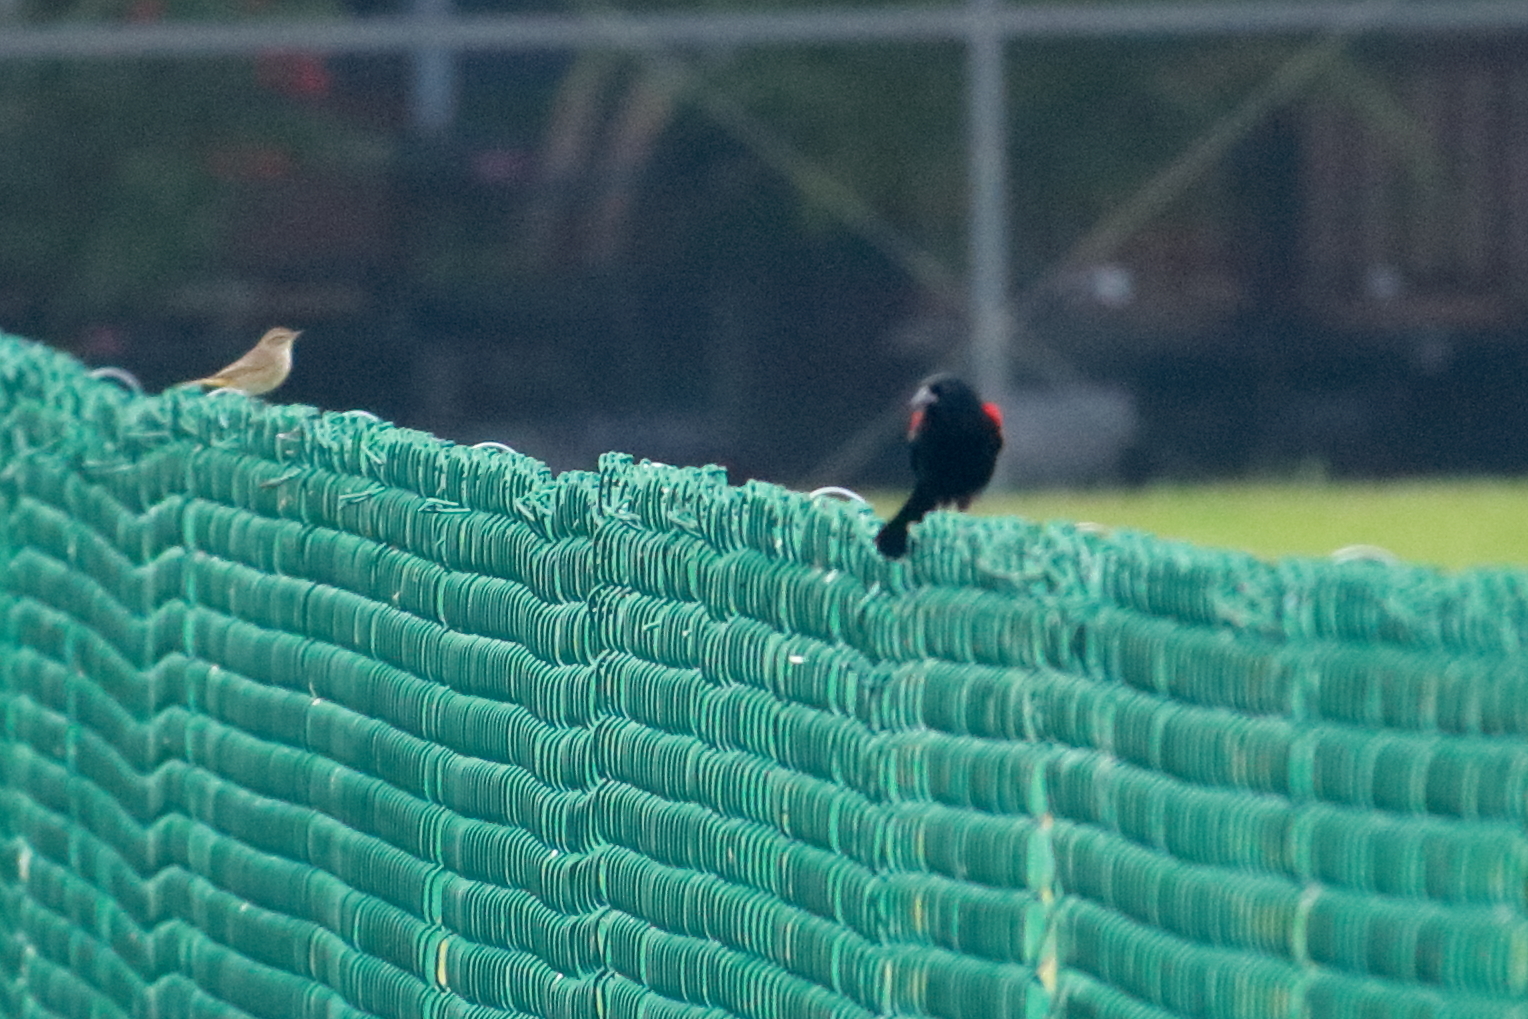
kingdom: Animalia
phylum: Chordata
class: Aves
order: Passeriformes
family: Icteridae
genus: Agelaius
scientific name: Agelaius phoeniceus
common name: Red-winged blackbird
